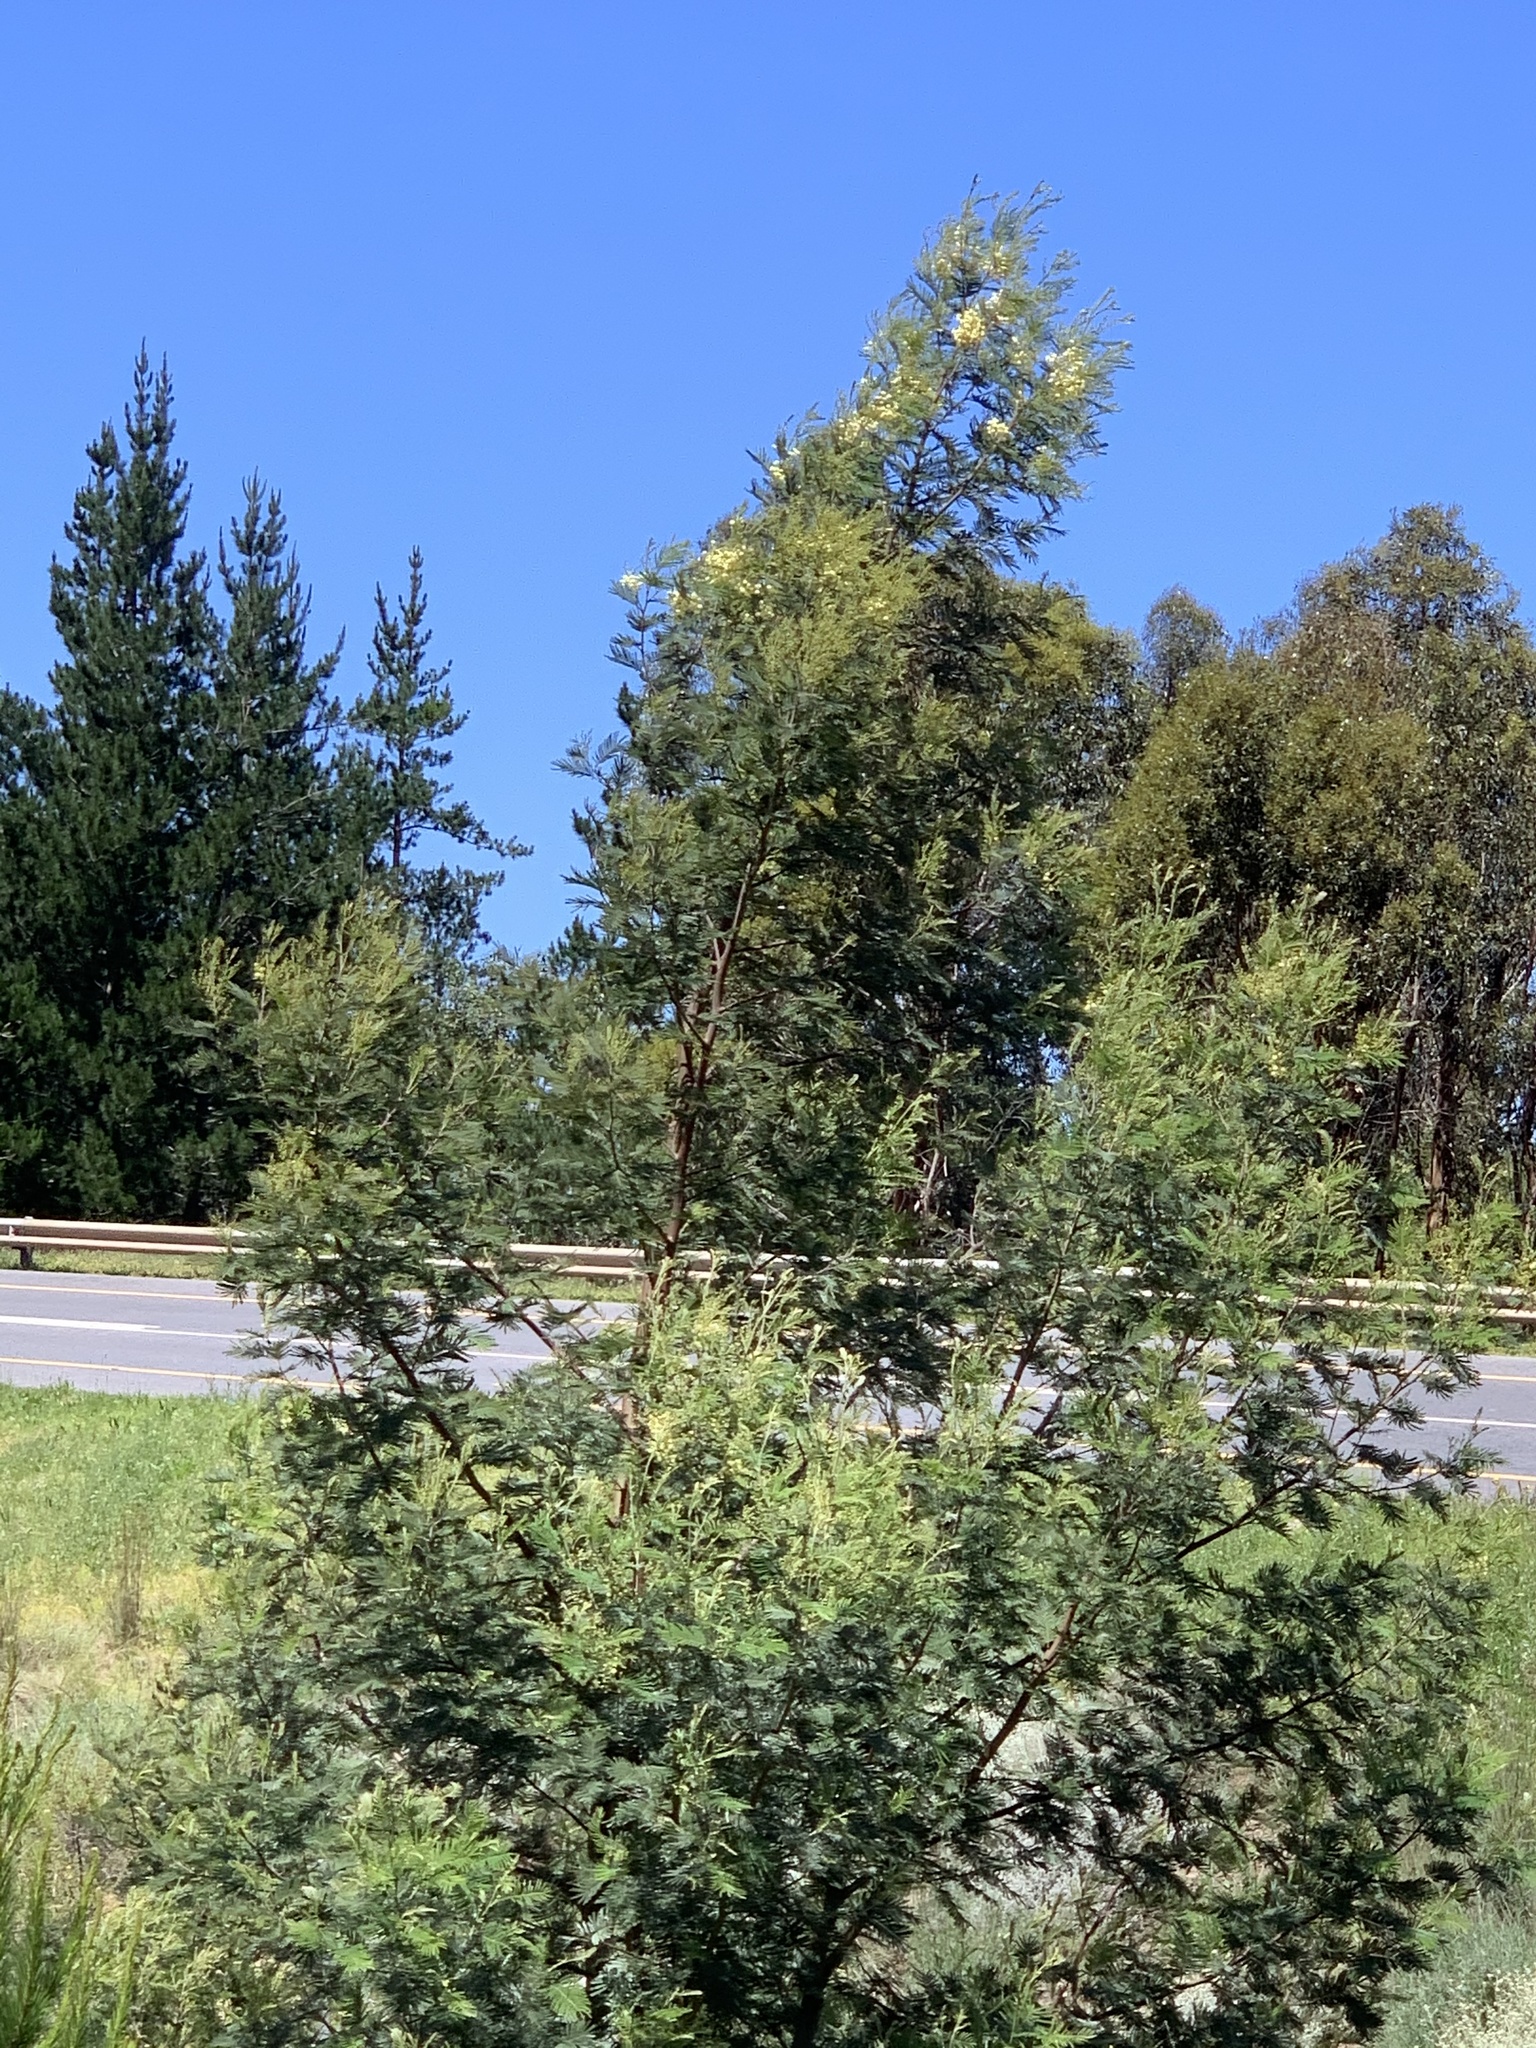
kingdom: Plantae
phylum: Tracheophyta
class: Magnoliopsida
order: Fabales
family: Fabaceae
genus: Acacia
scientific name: Acacia mearnsii
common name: Black wattle
